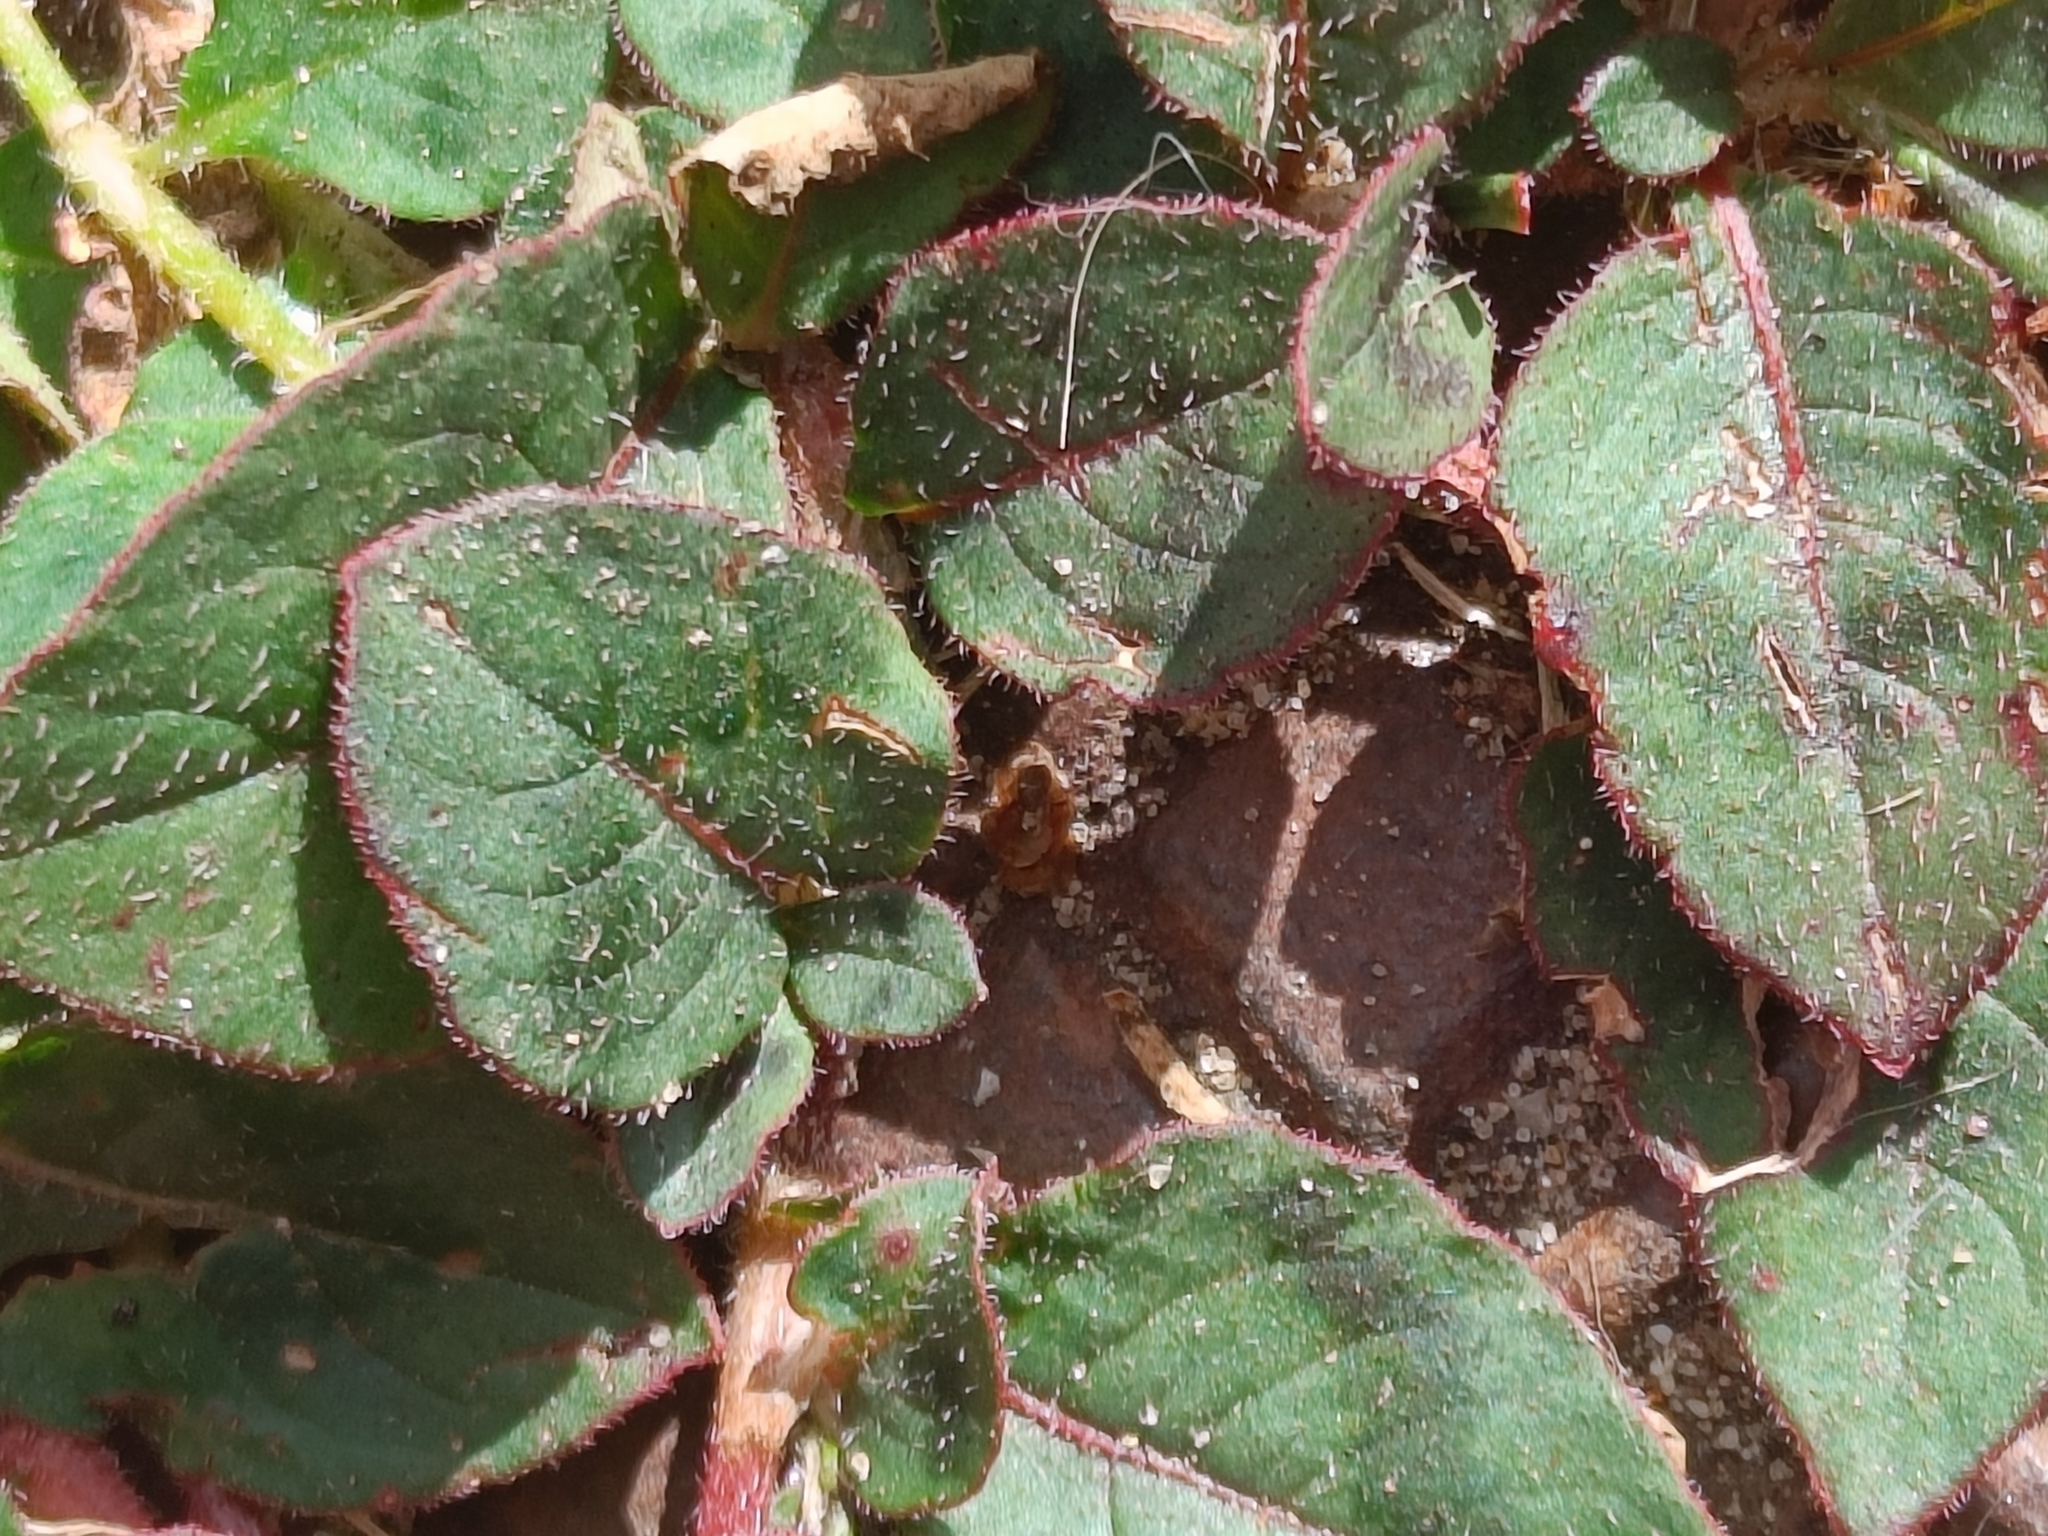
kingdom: Plantae
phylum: Tracheophyta
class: Magnoliopsida
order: Caryophyllales
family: Polygonaceae
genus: Persicaria
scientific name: Persicaria capitata
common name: Pinkhead smartweed
